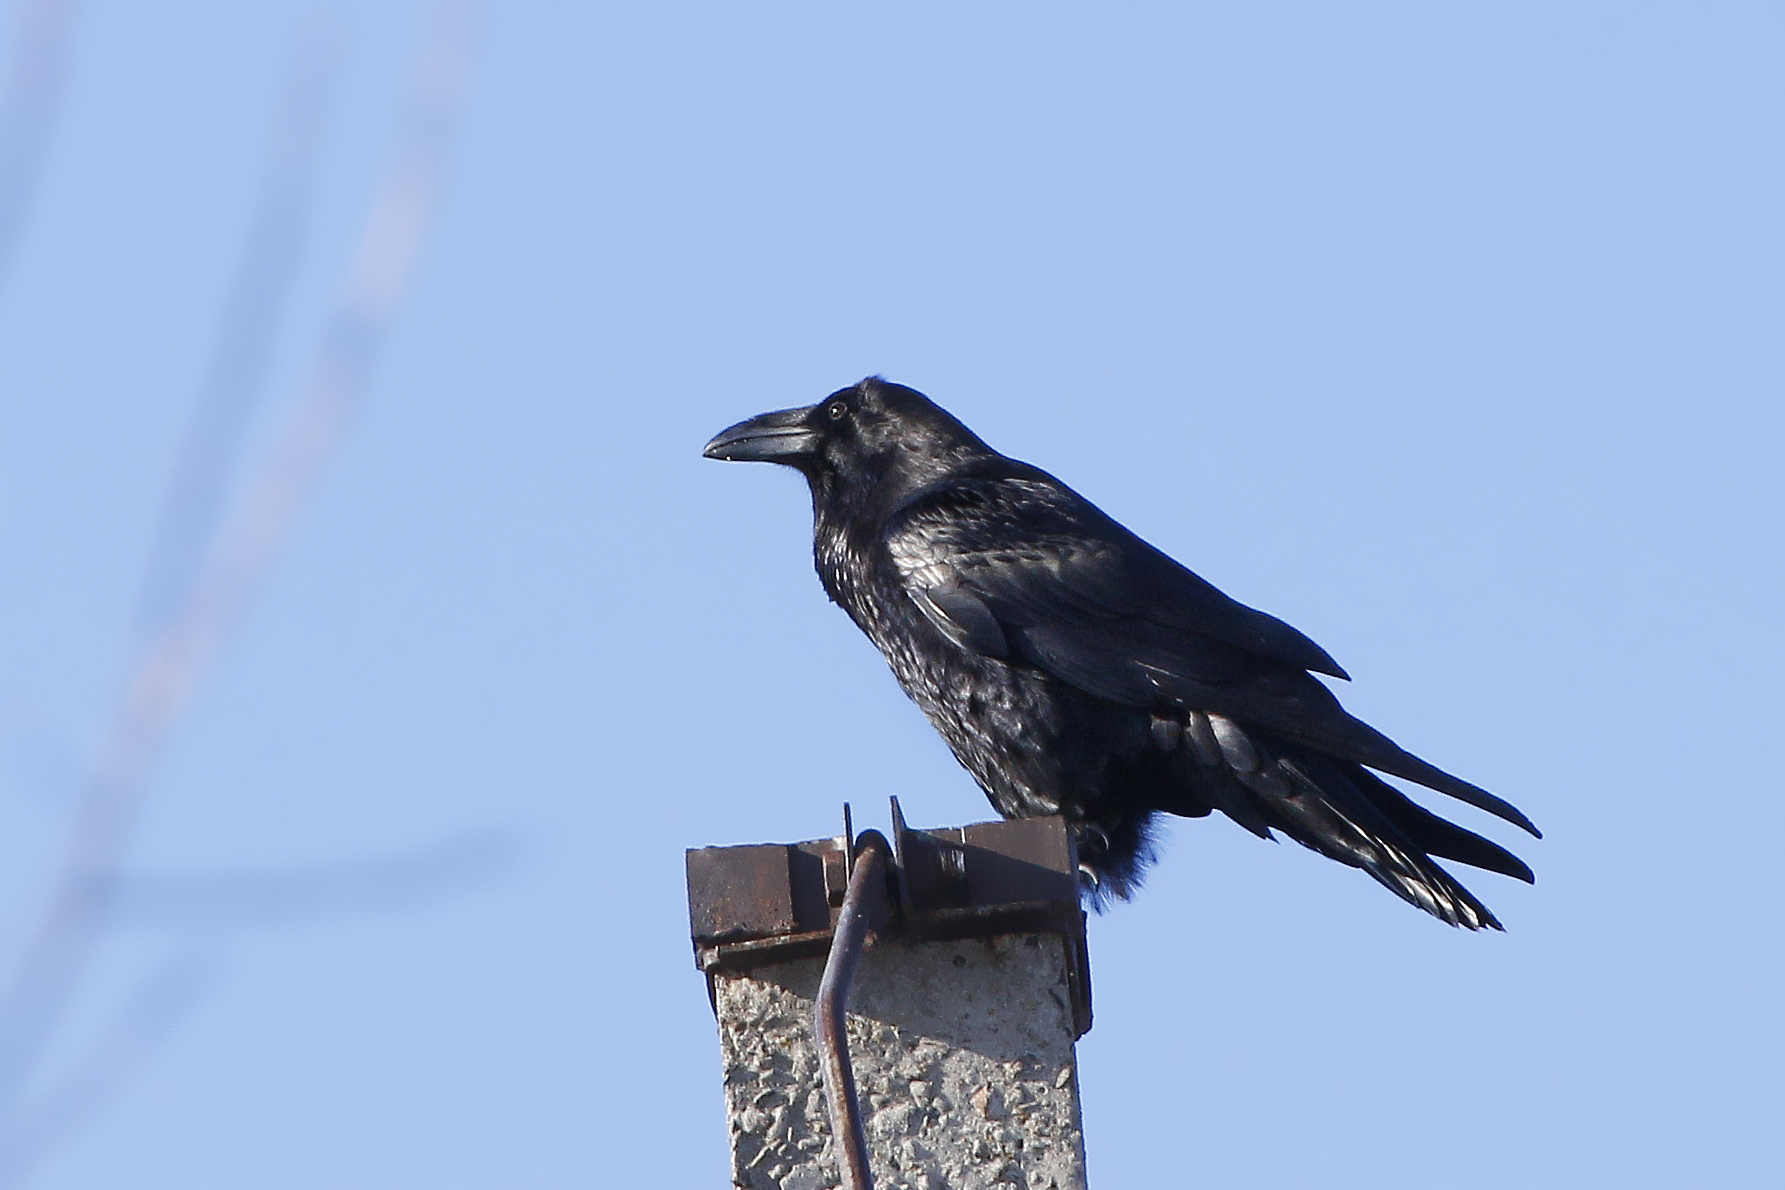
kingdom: Animalia
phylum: Chordata
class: Aves
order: Passeriformes
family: Corvidae
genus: Corvus
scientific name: Corvus corax
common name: Common raven
